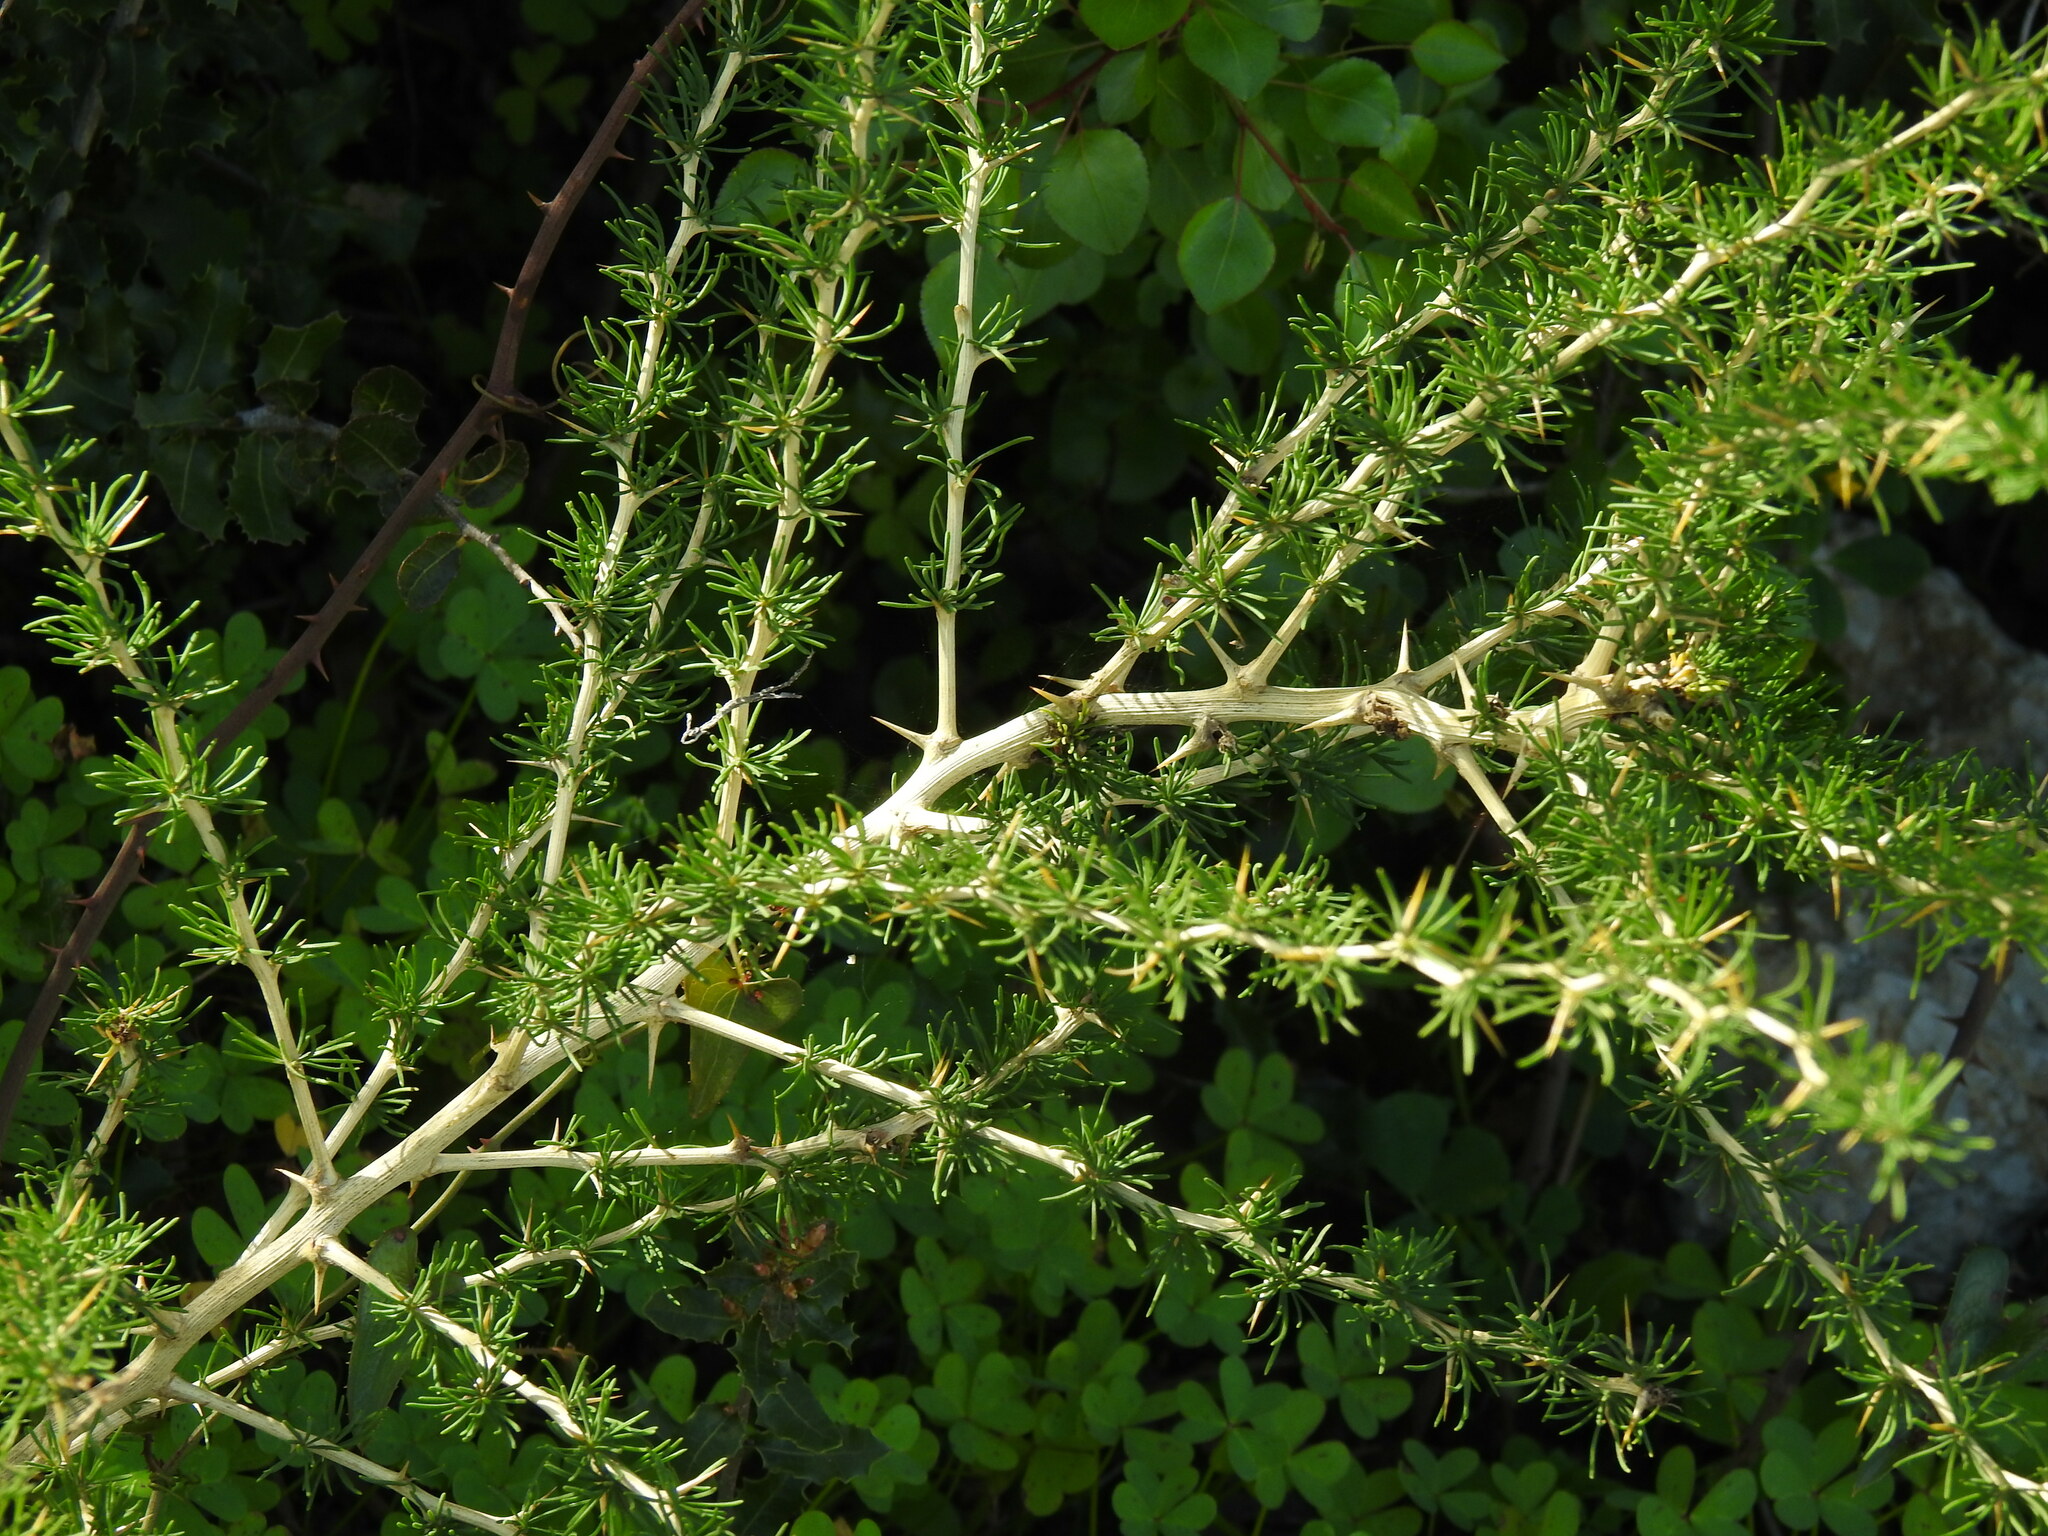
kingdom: Plantae
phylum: Tracheophyta
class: Liliopsida
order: Asparagales
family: Asparagaceae
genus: Asparagus
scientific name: Asparagus albus
